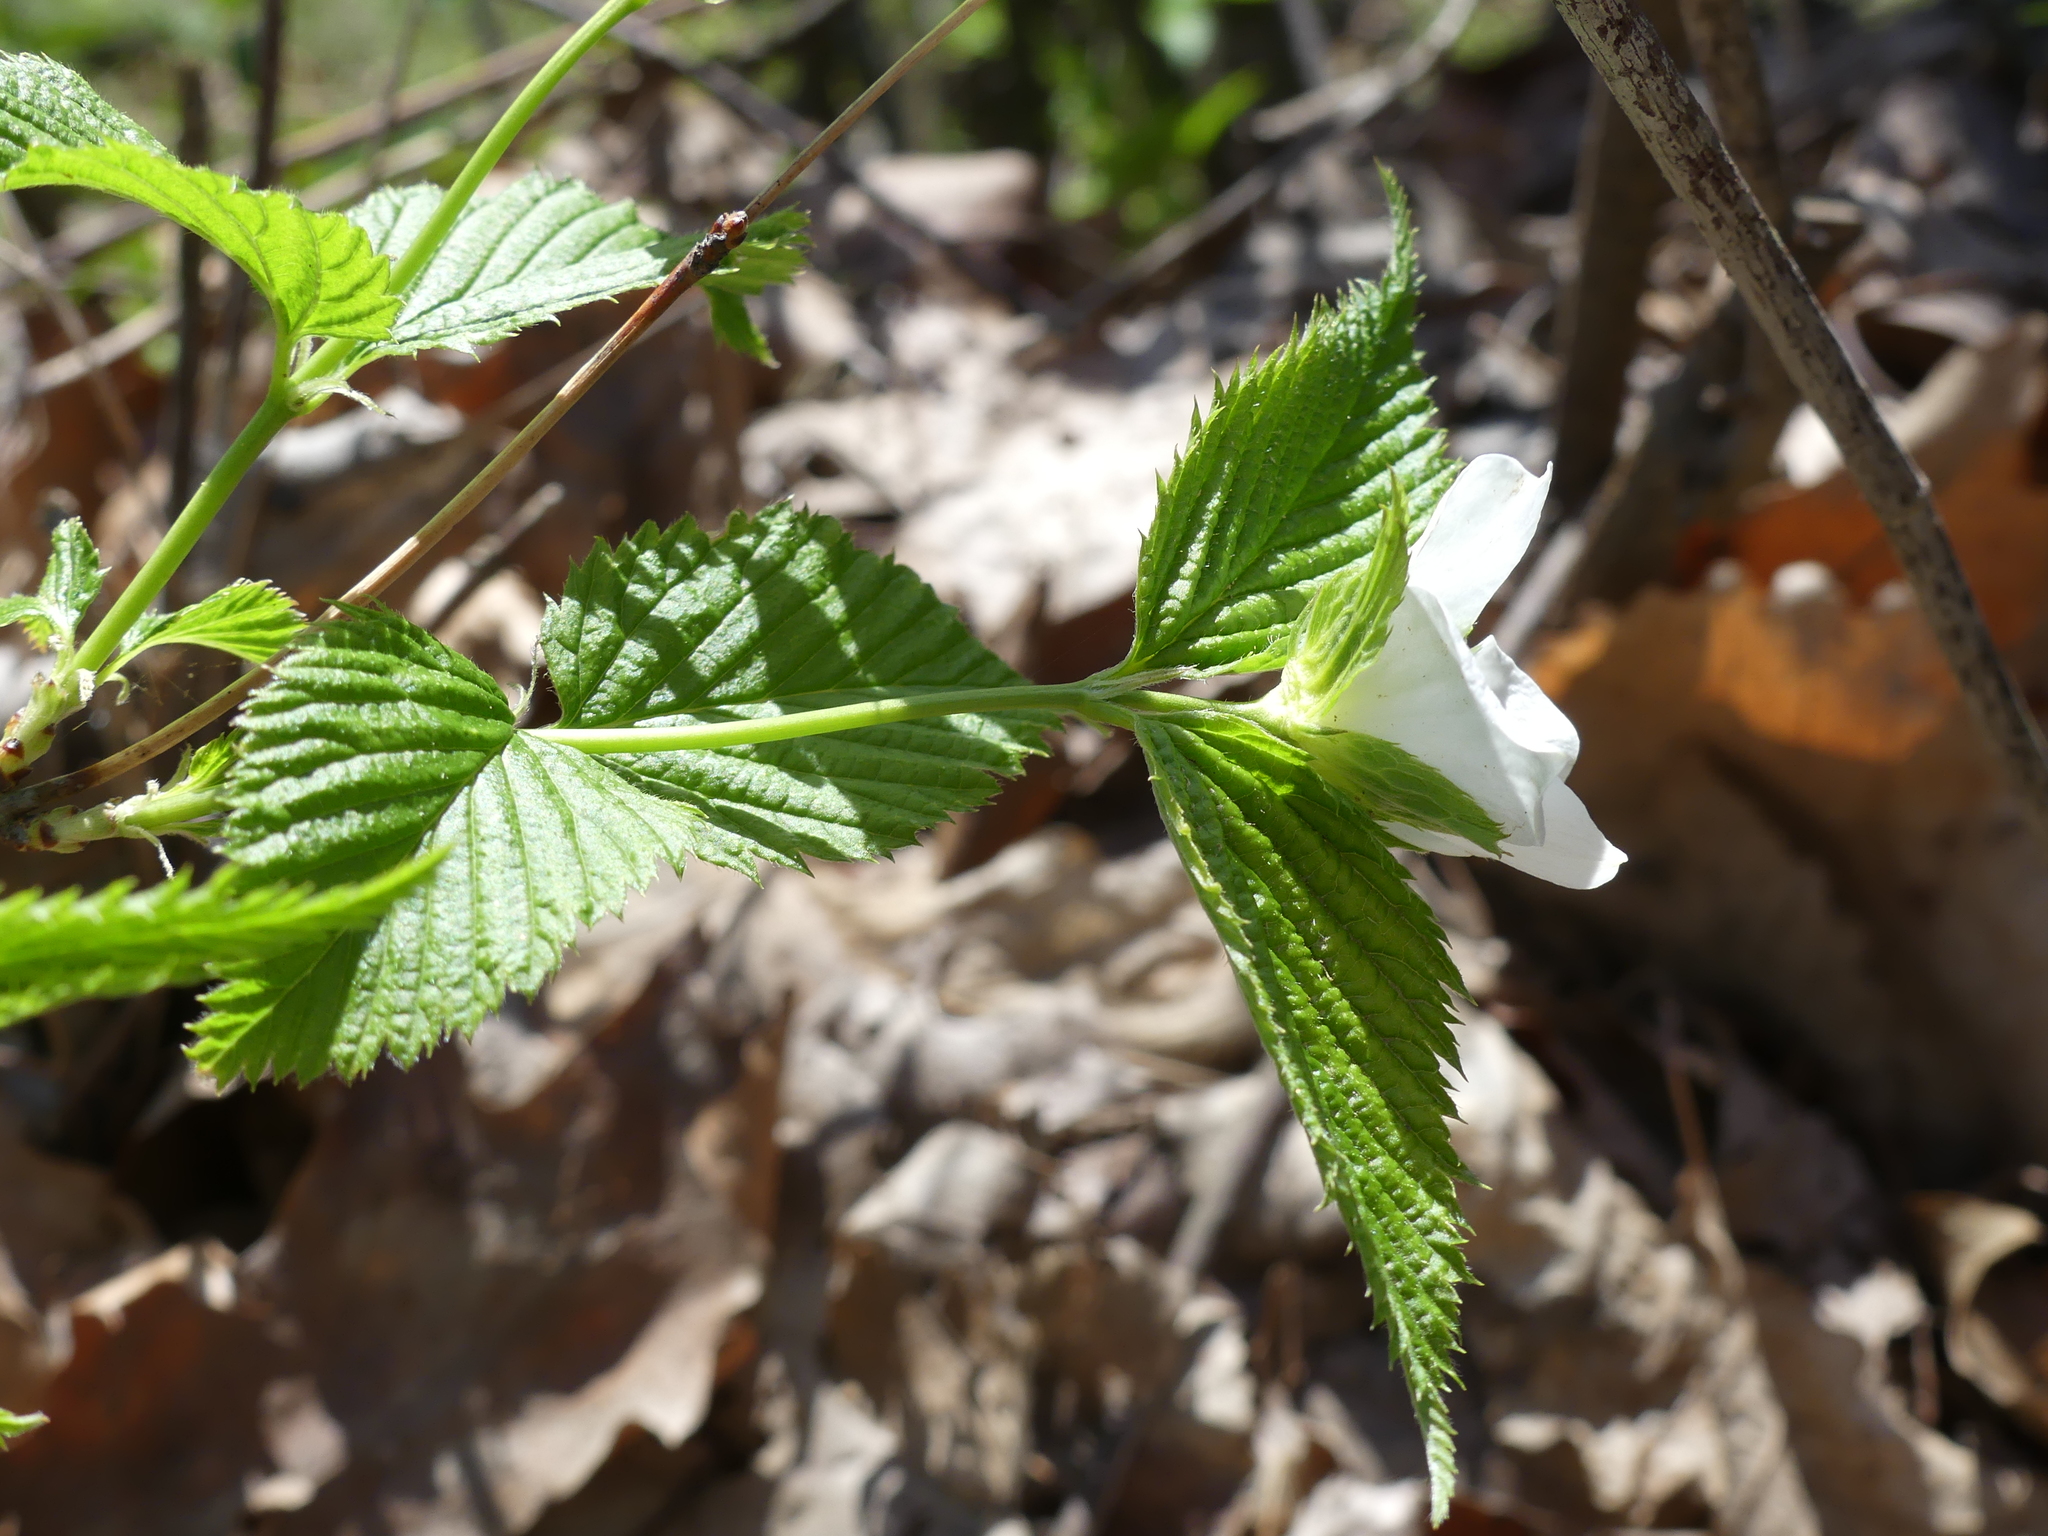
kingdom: Plantae
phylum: Tracheophyta
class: Magnoliopsida
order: Rosales
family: Rosaceae
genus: Rhodotypos
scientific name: Rhodotypos scandens
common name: Jetbead
